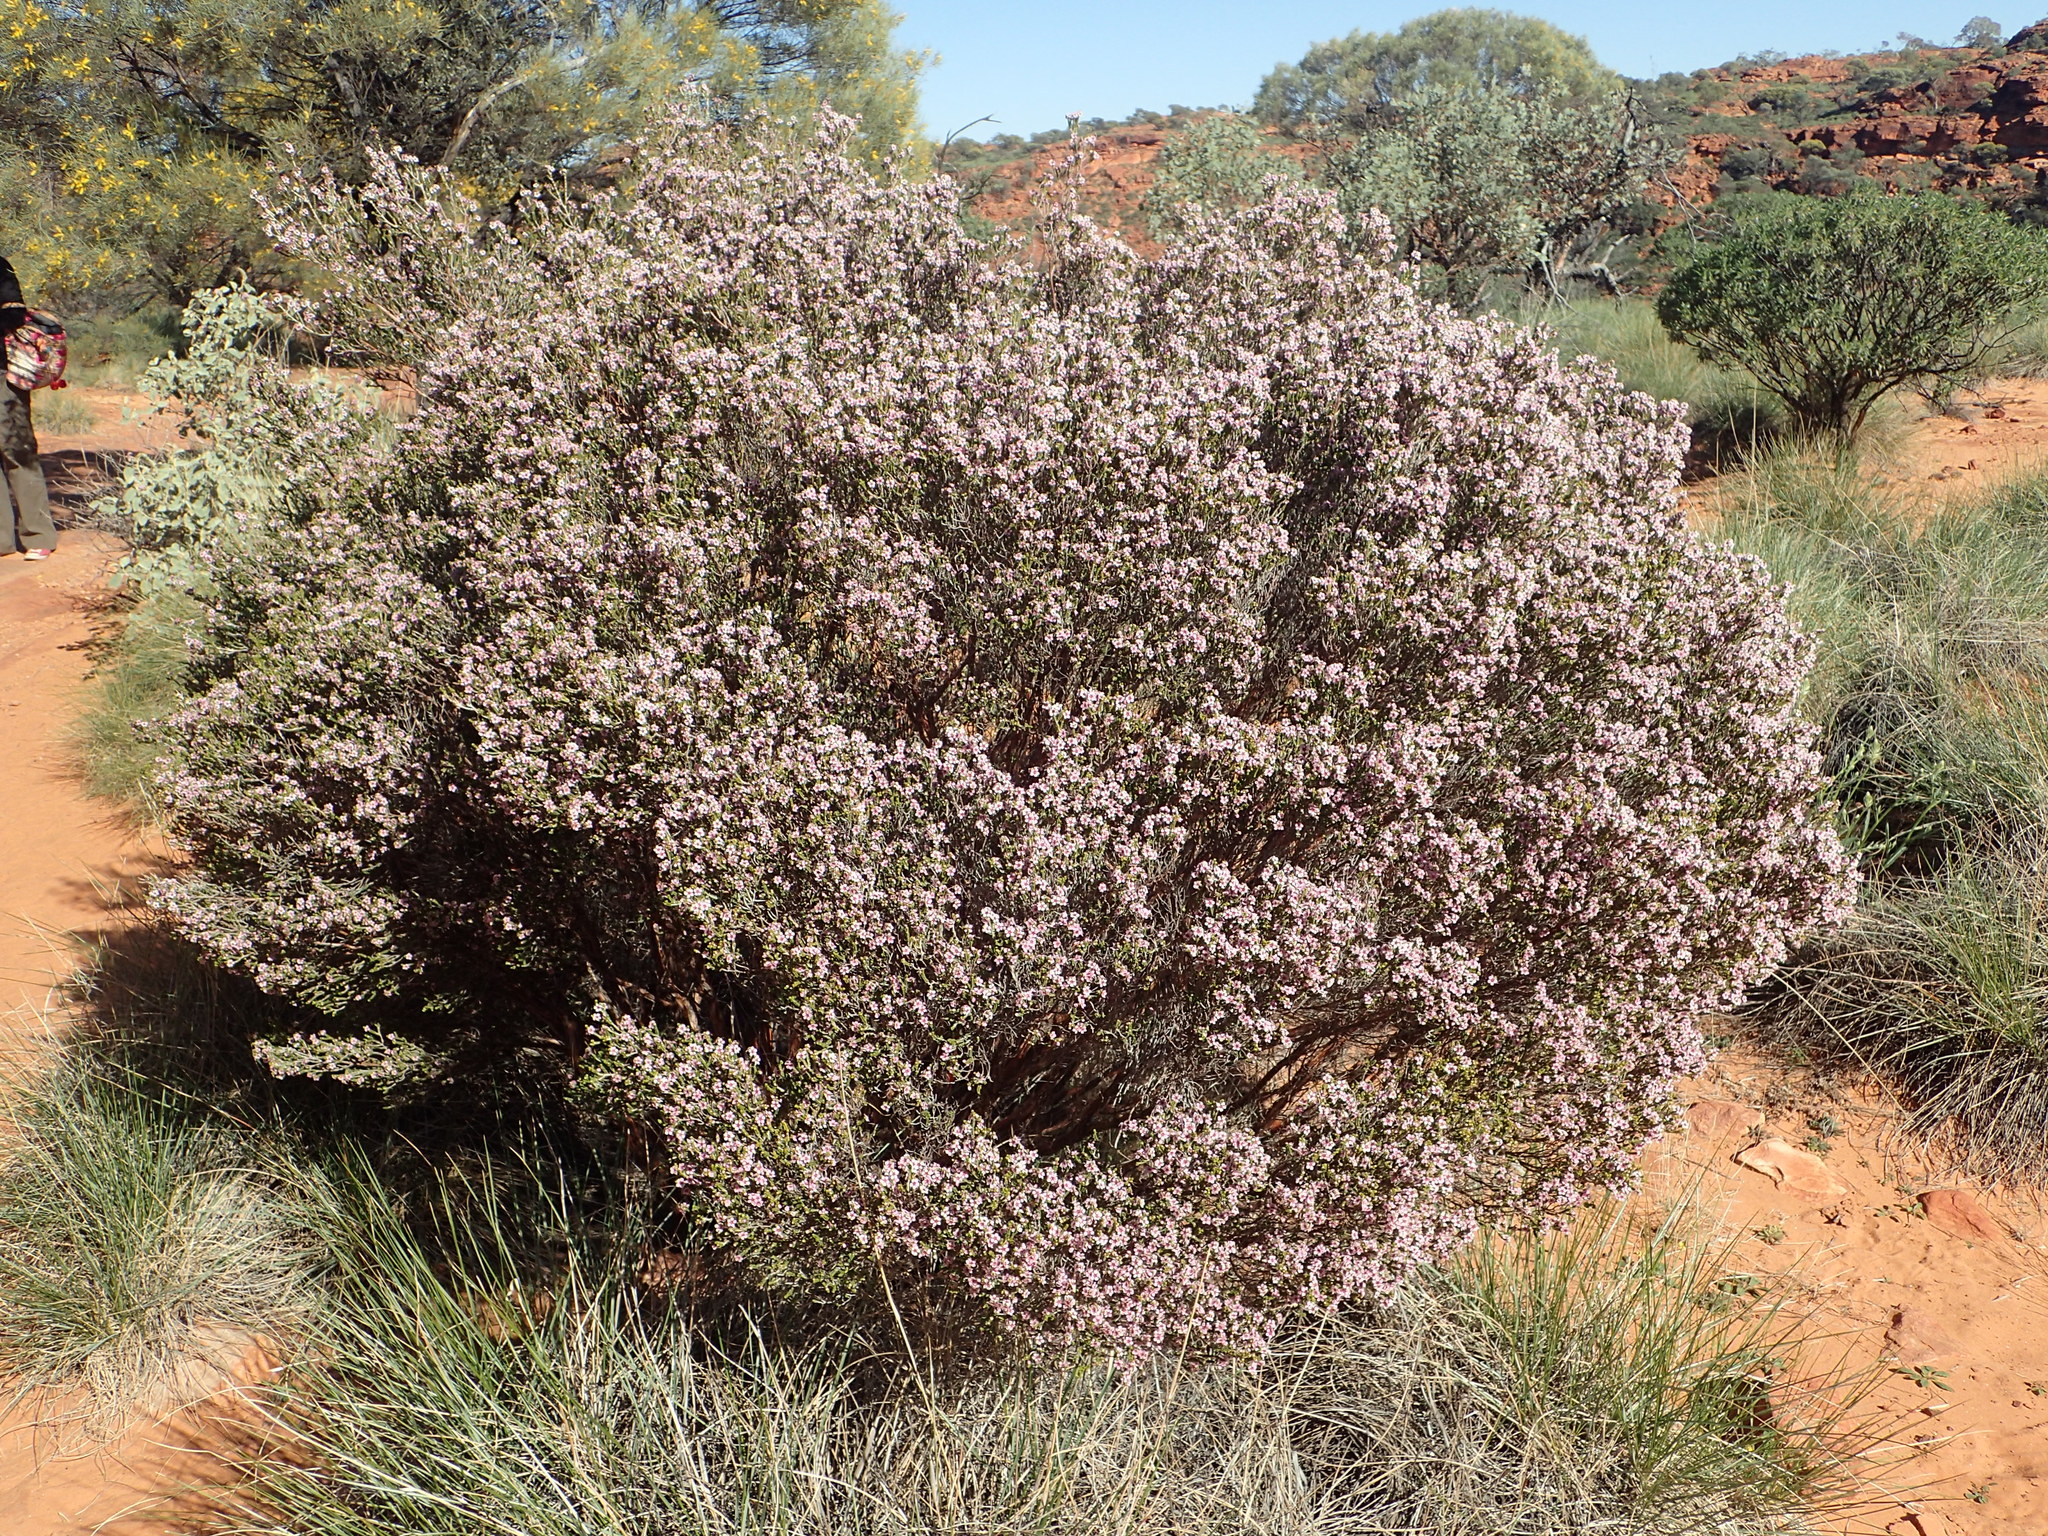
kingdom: Plantae
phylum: Tracheophyta
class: Magnoliopsida
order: Myrtales
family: Myrtaceae
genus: Aluta
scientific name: Aluta maisonneuvei
